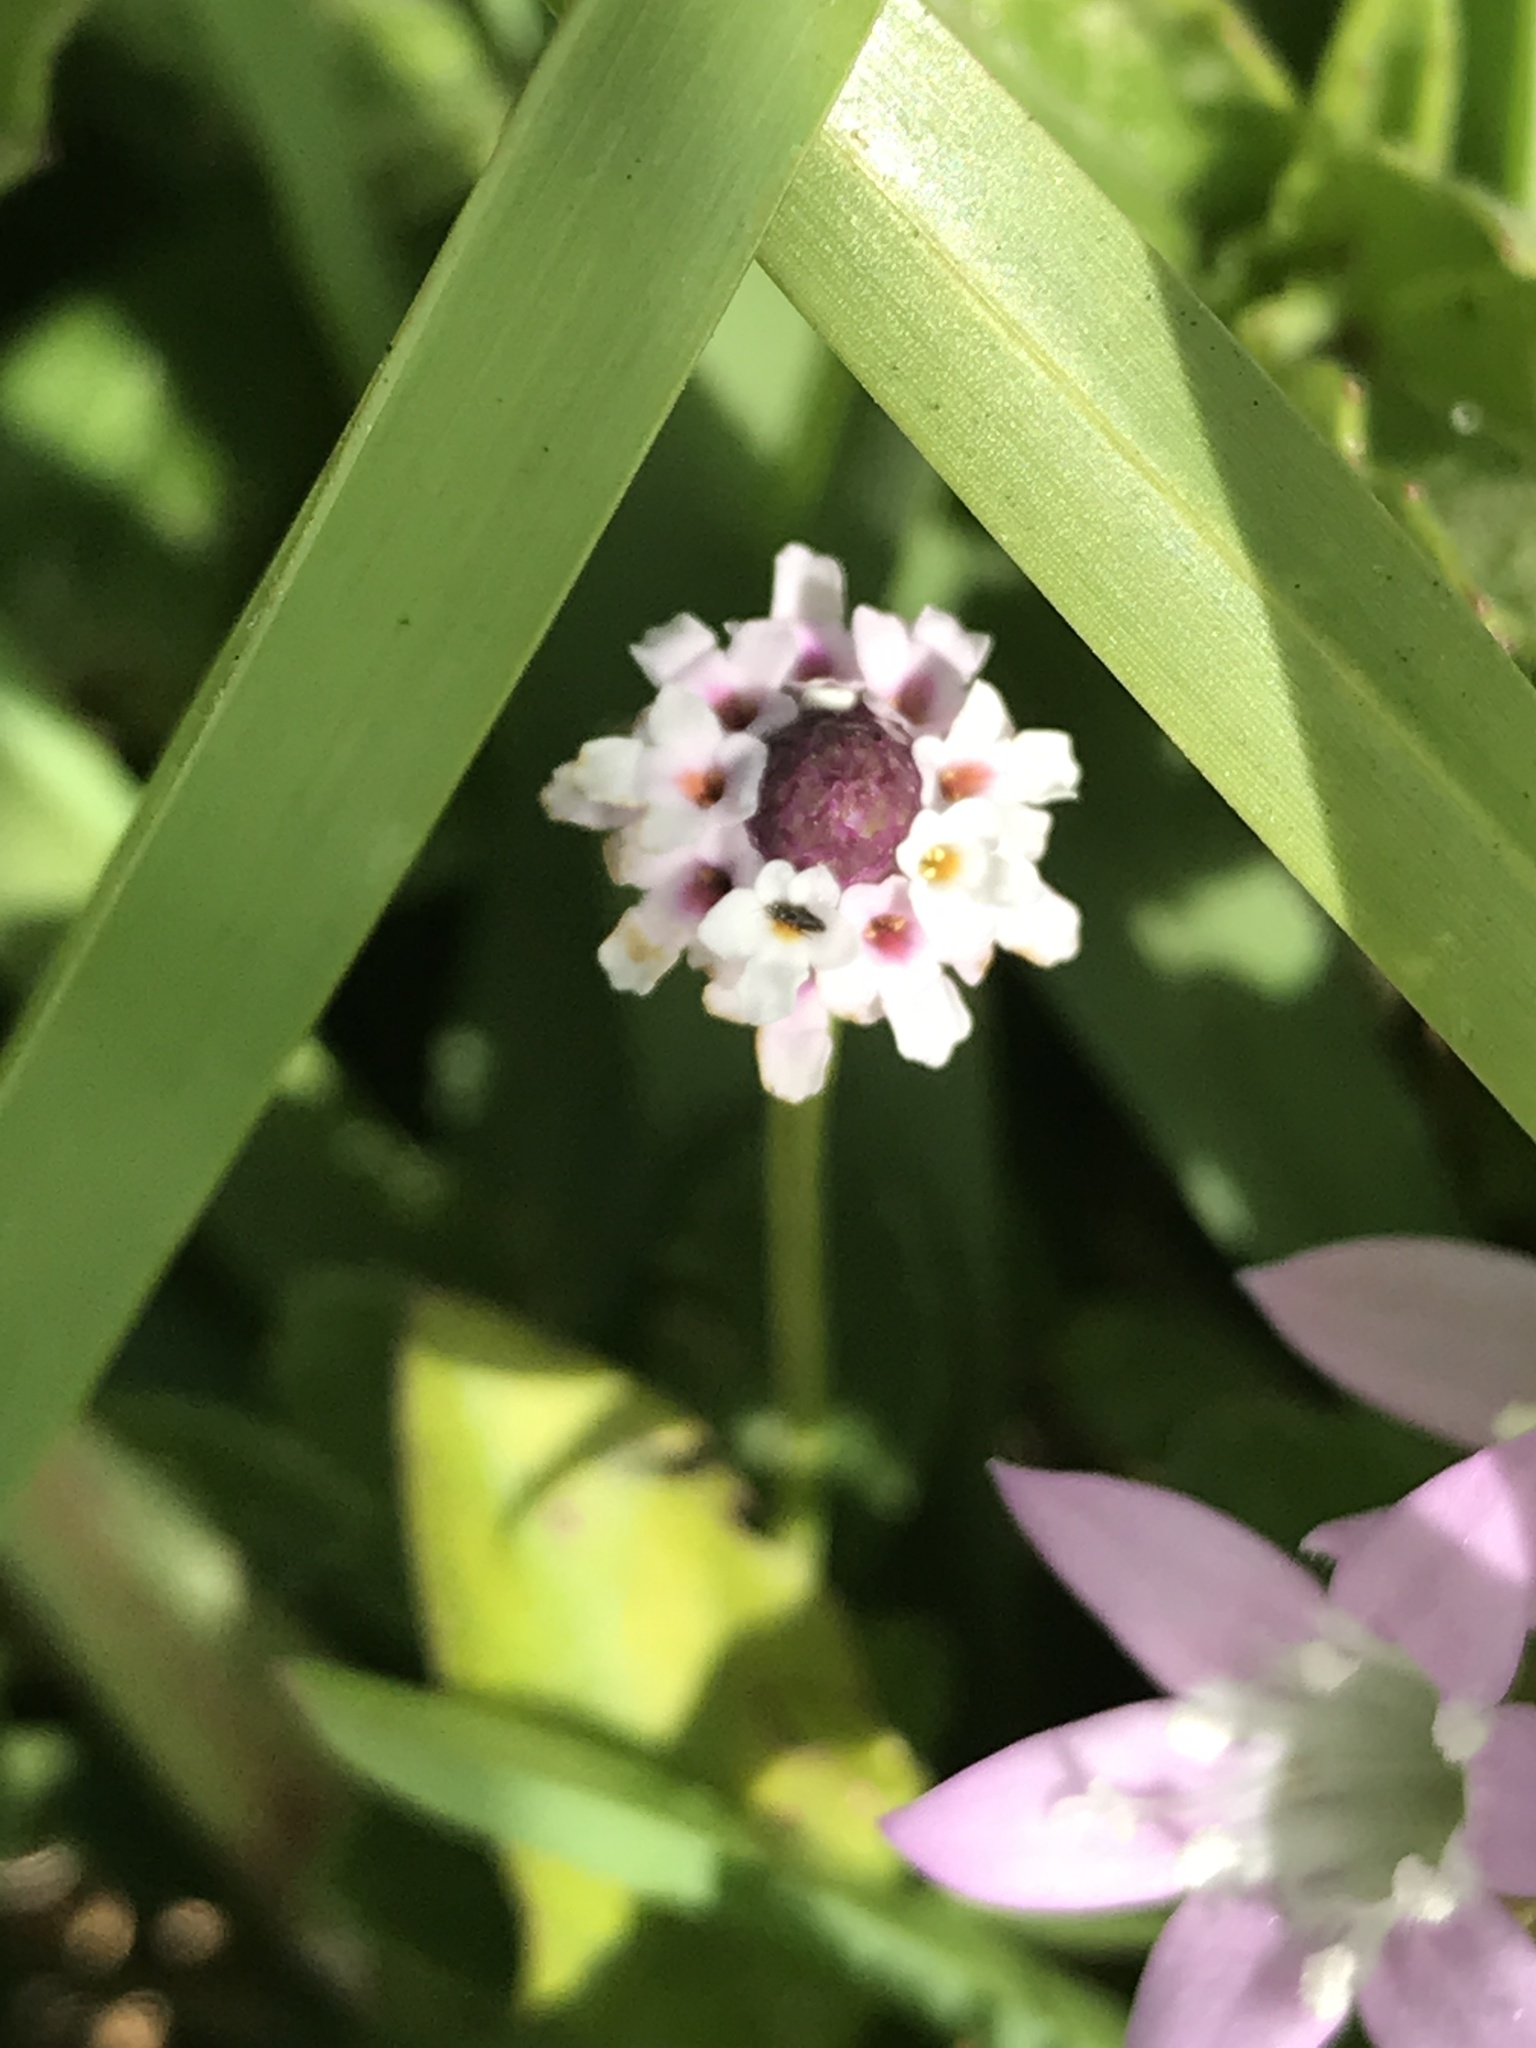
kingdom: Plantae
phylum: Tracheophyta
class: Magnoliopsida
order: Lamiales
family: Verbenaceae
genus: Phyla
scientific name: Phyla nodiflora
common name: Frogfruit
